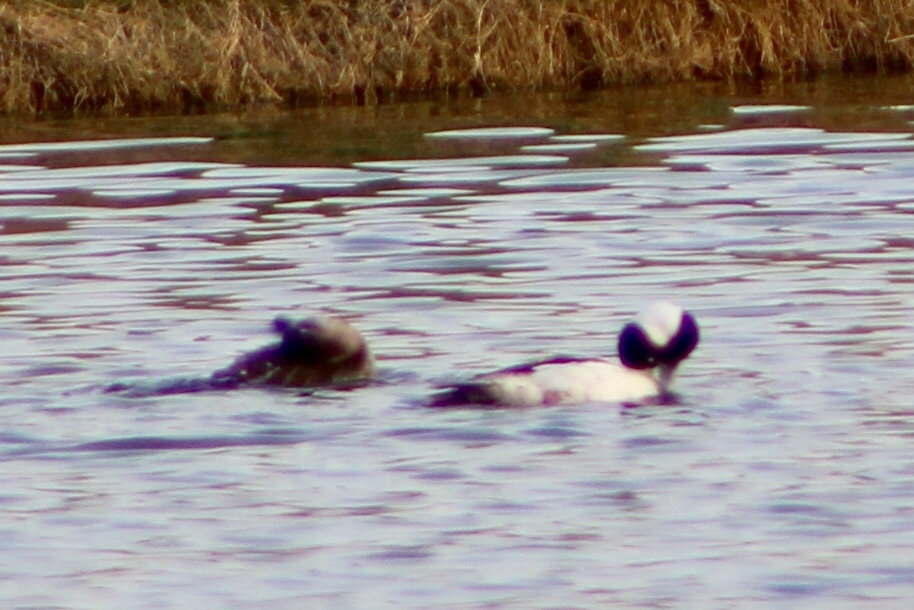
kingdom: Animalia
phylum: Chordata
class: Aves
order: Anseriformes
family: Anatidae
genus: Bucephala
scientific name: Bucephala albeola
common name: Bufflehead
